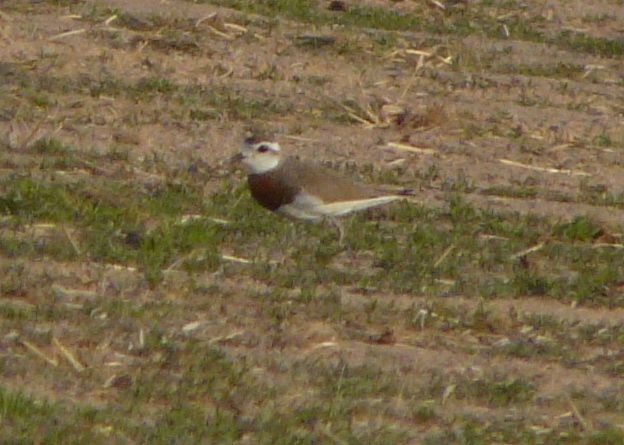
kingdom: Animalia
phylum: Chordata
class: Aves
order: Charadriiformes
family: Charadriidae
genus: Charadrius
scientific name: Charadrius asiaticus
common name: Caspian plover
